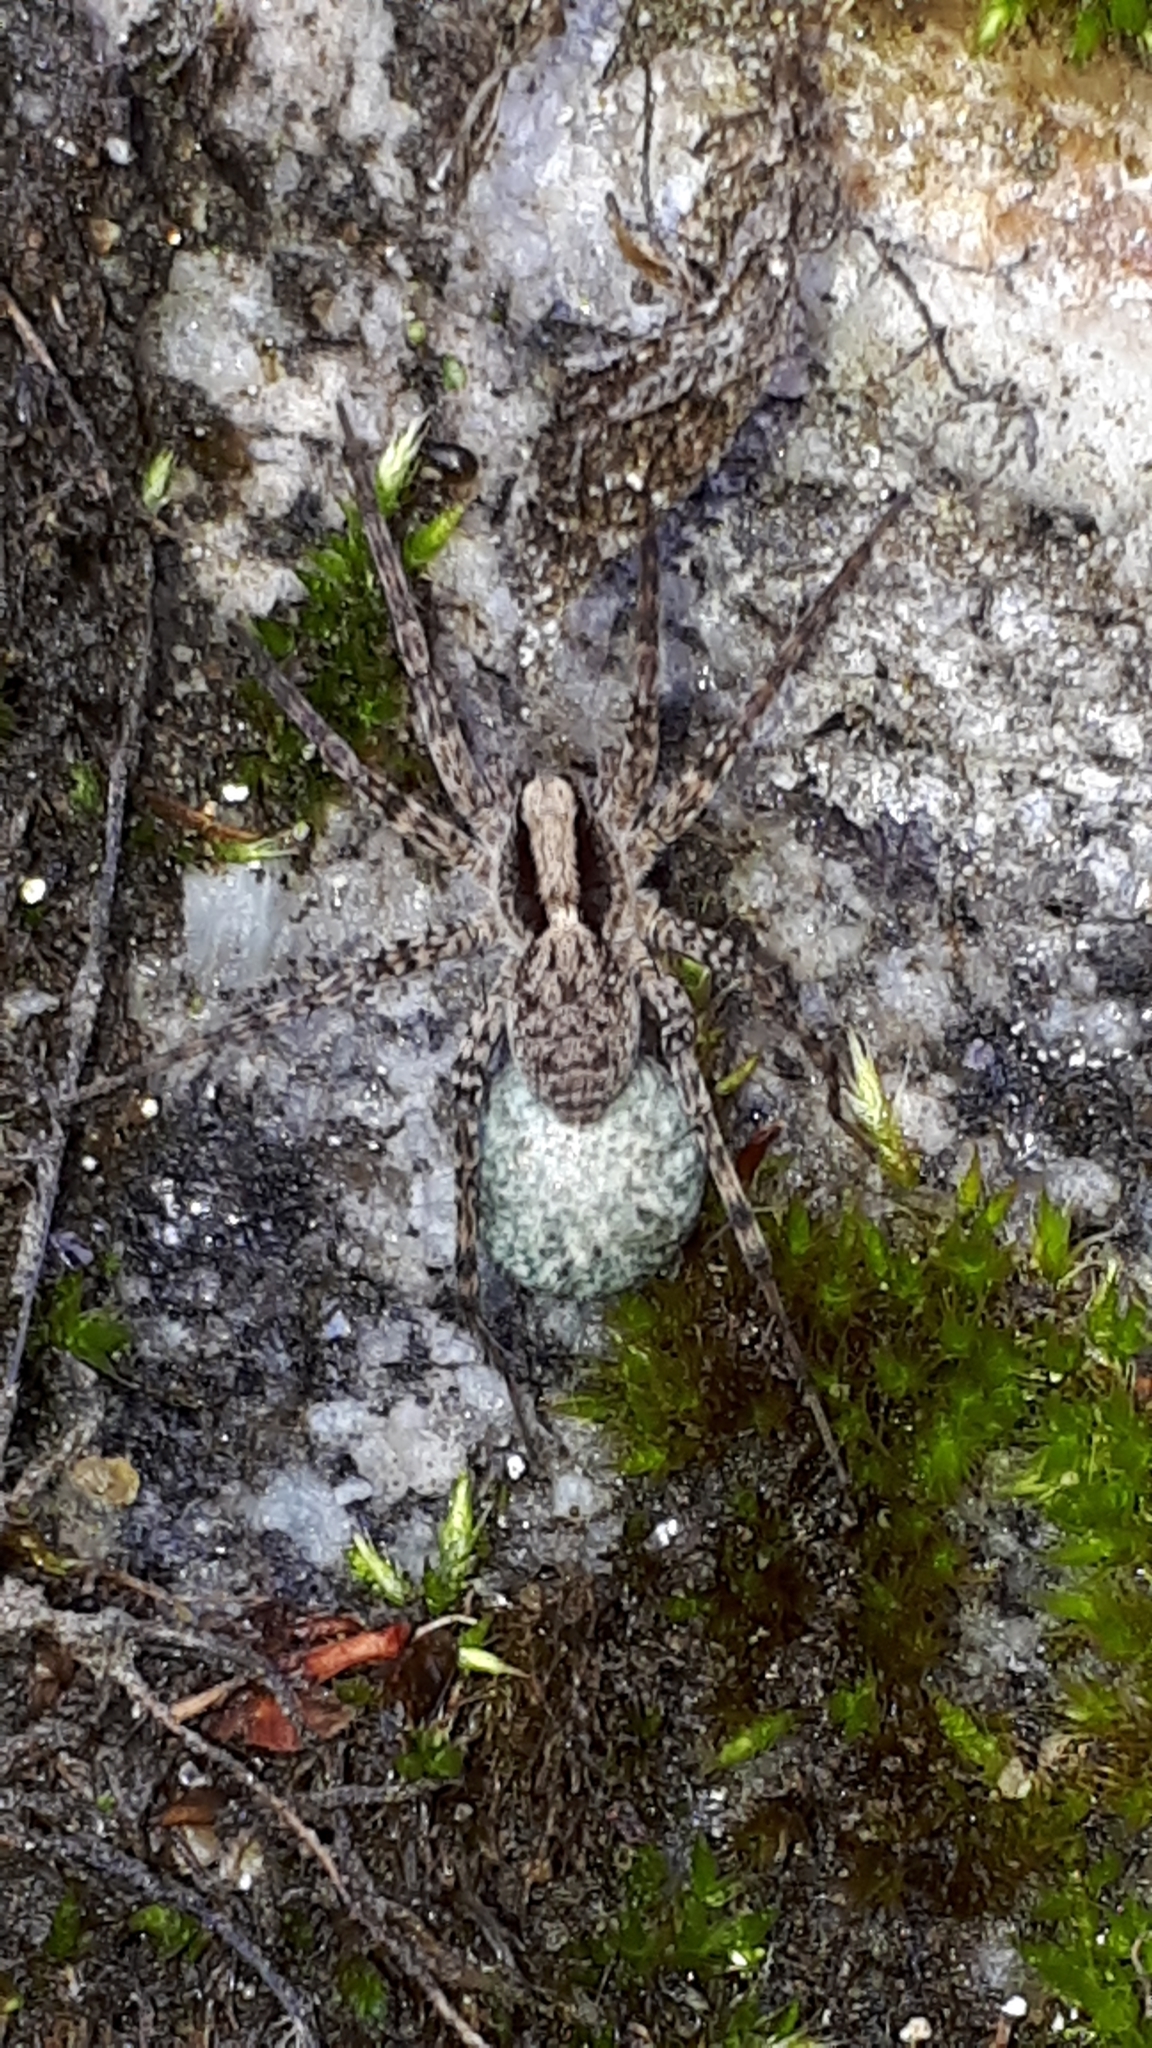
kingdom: Animalia
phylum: Arthropoda
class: Arachnida
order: Araneae
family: Lycosidae
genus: Pardosa
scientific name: Pardosa
